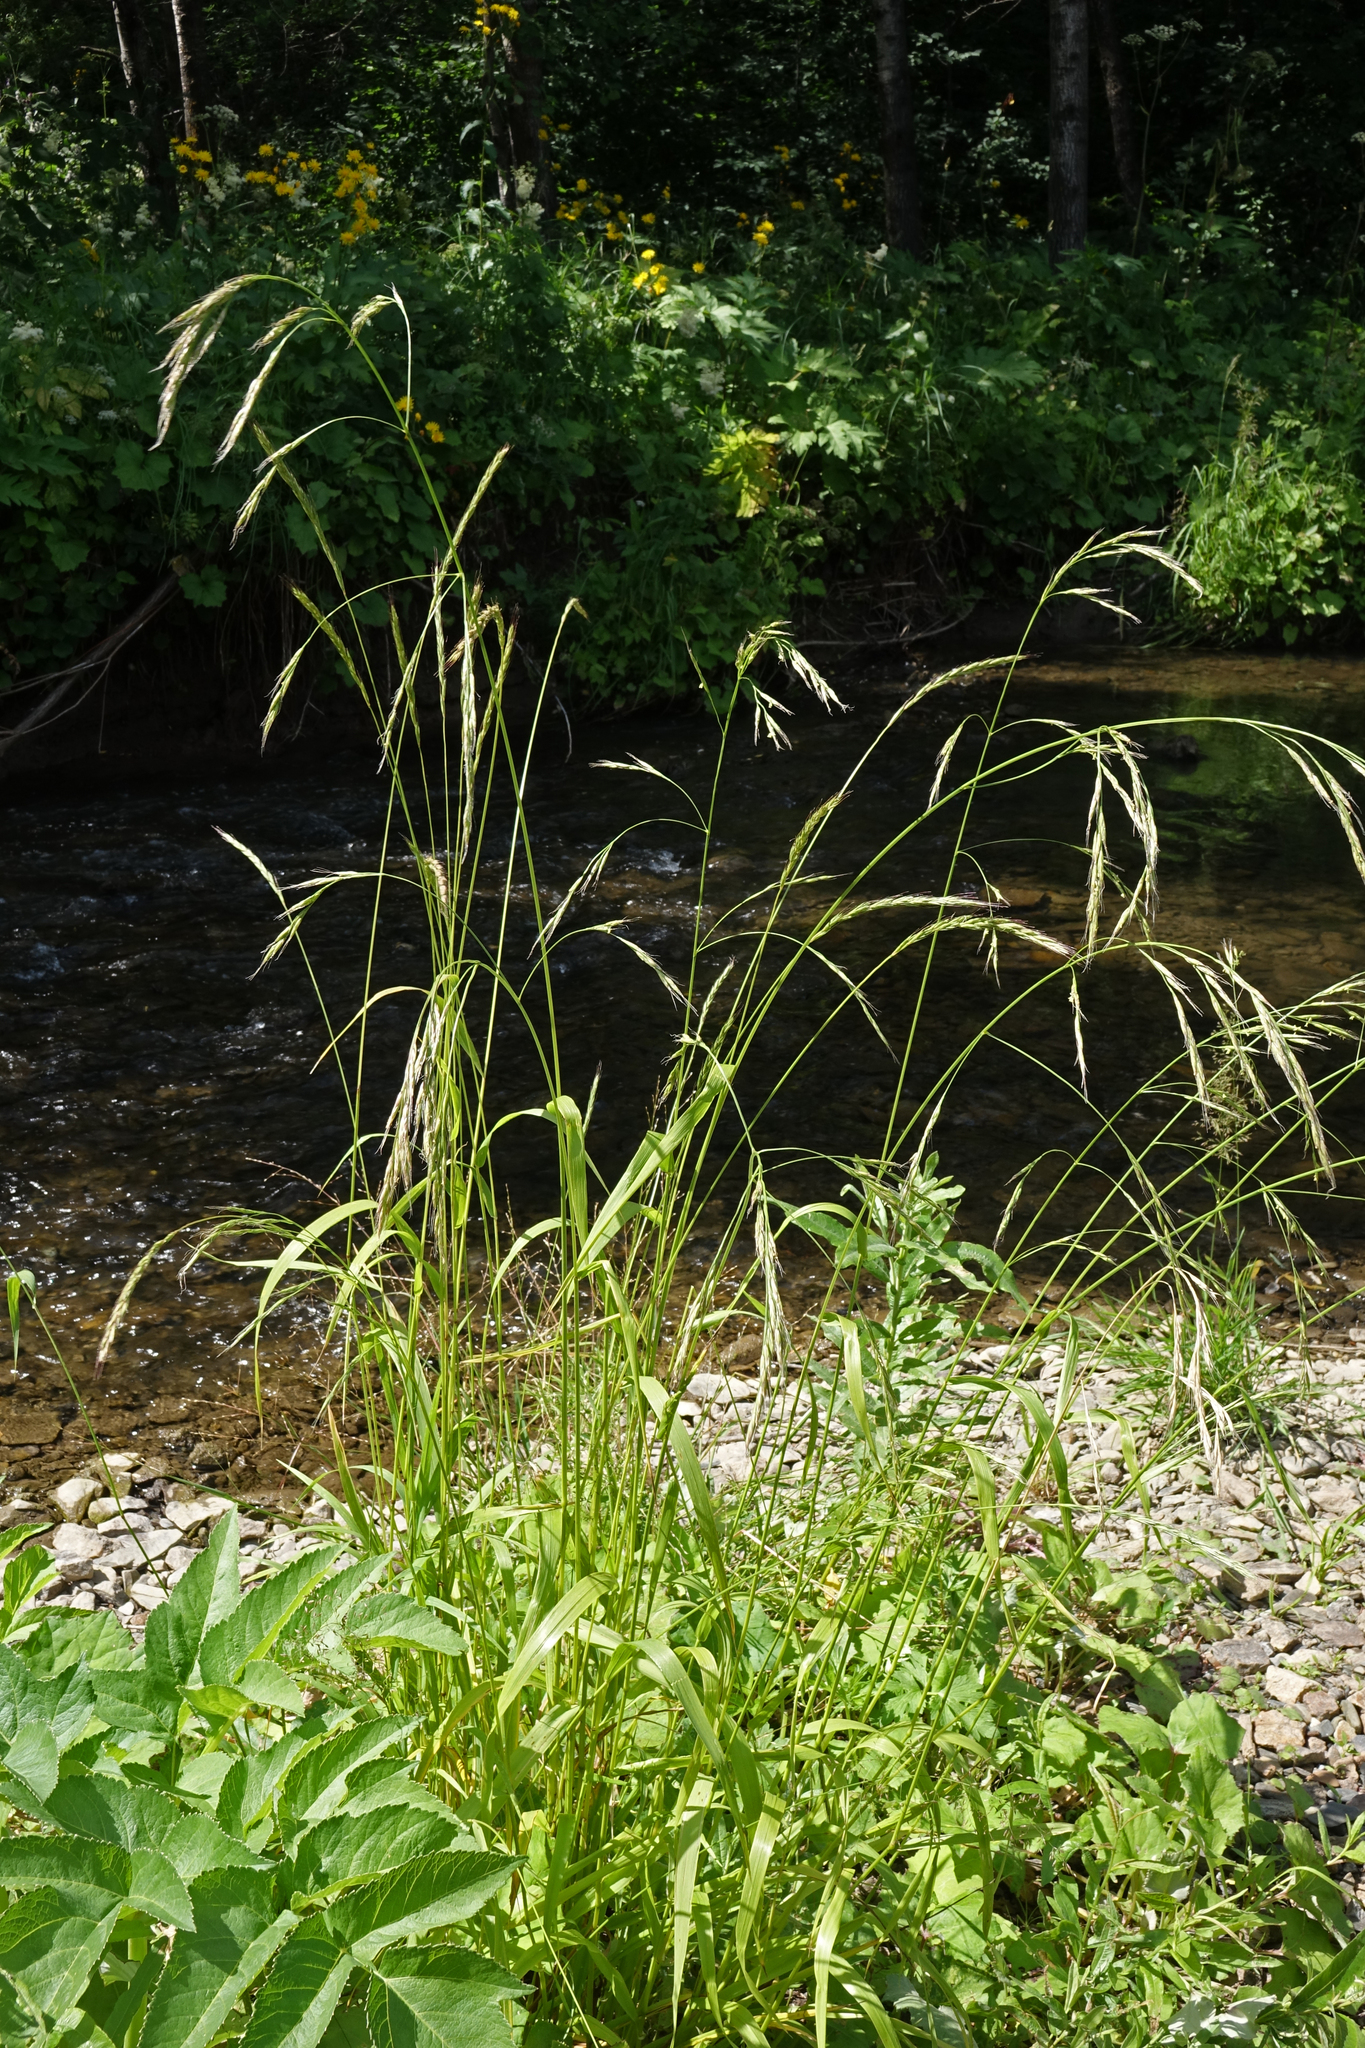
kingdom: Plantae
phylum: Tracheophyta
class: Liliopsida
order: Poales
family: Poaceae
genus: Lolium
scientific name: Lolium giganteum
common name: Giant fescue
